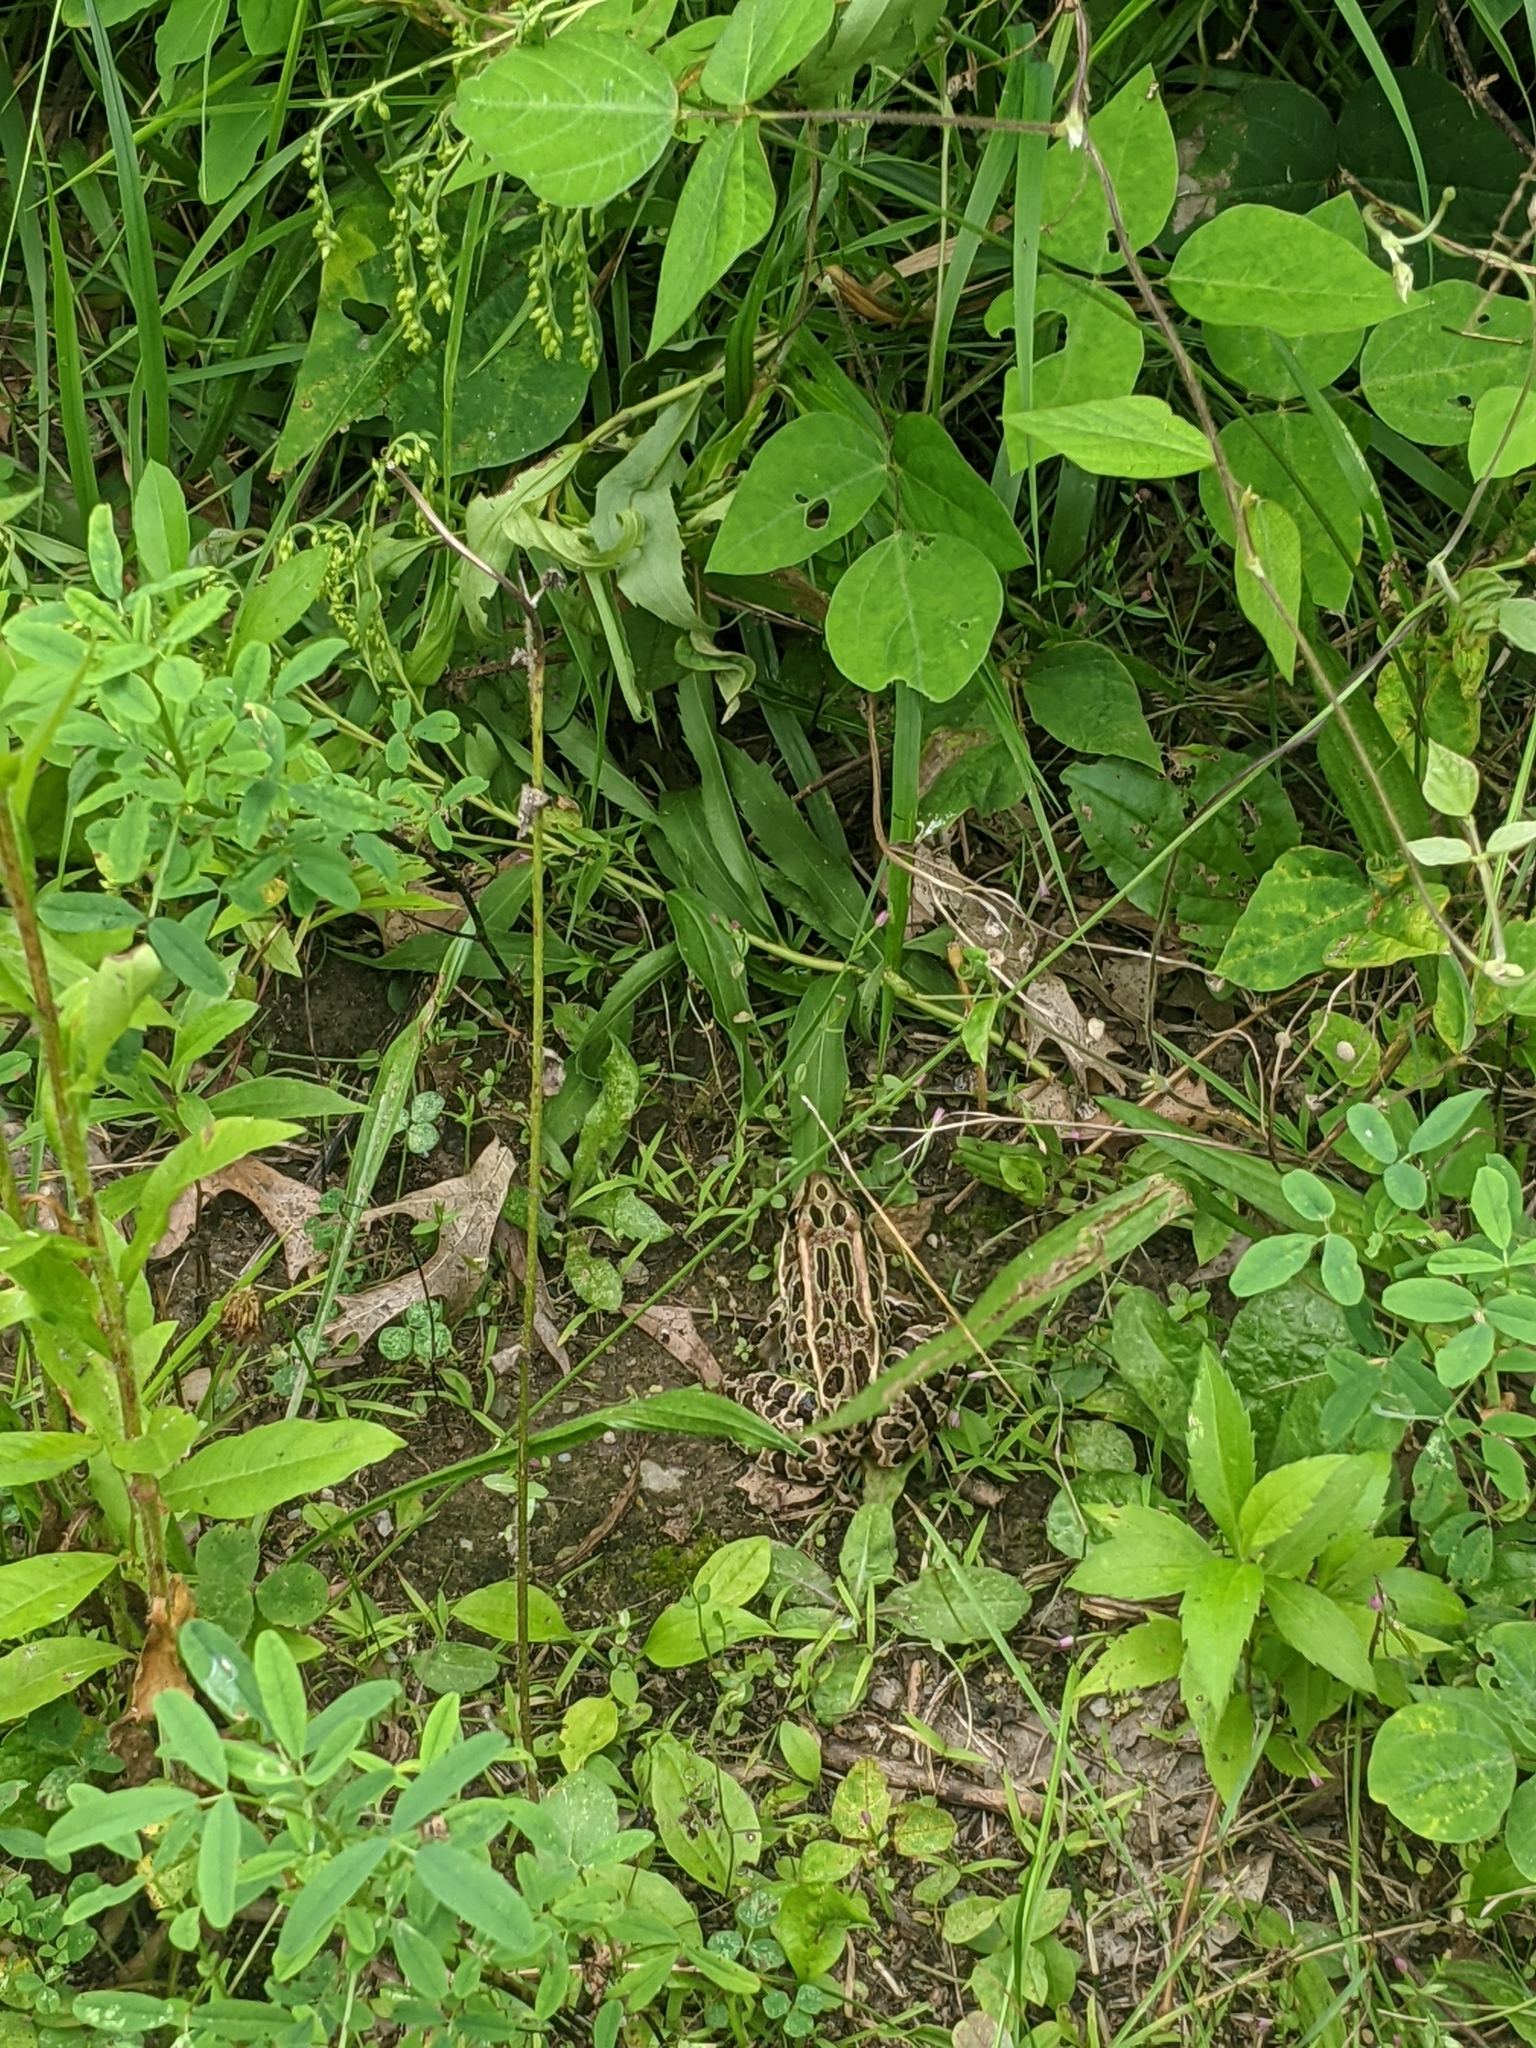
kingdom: Animalia
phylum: Chordata
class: Amphibia
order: Anura
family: Ranidae
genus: Lithobates
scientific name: Lithobates pipiens
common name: Northern leopard frog
